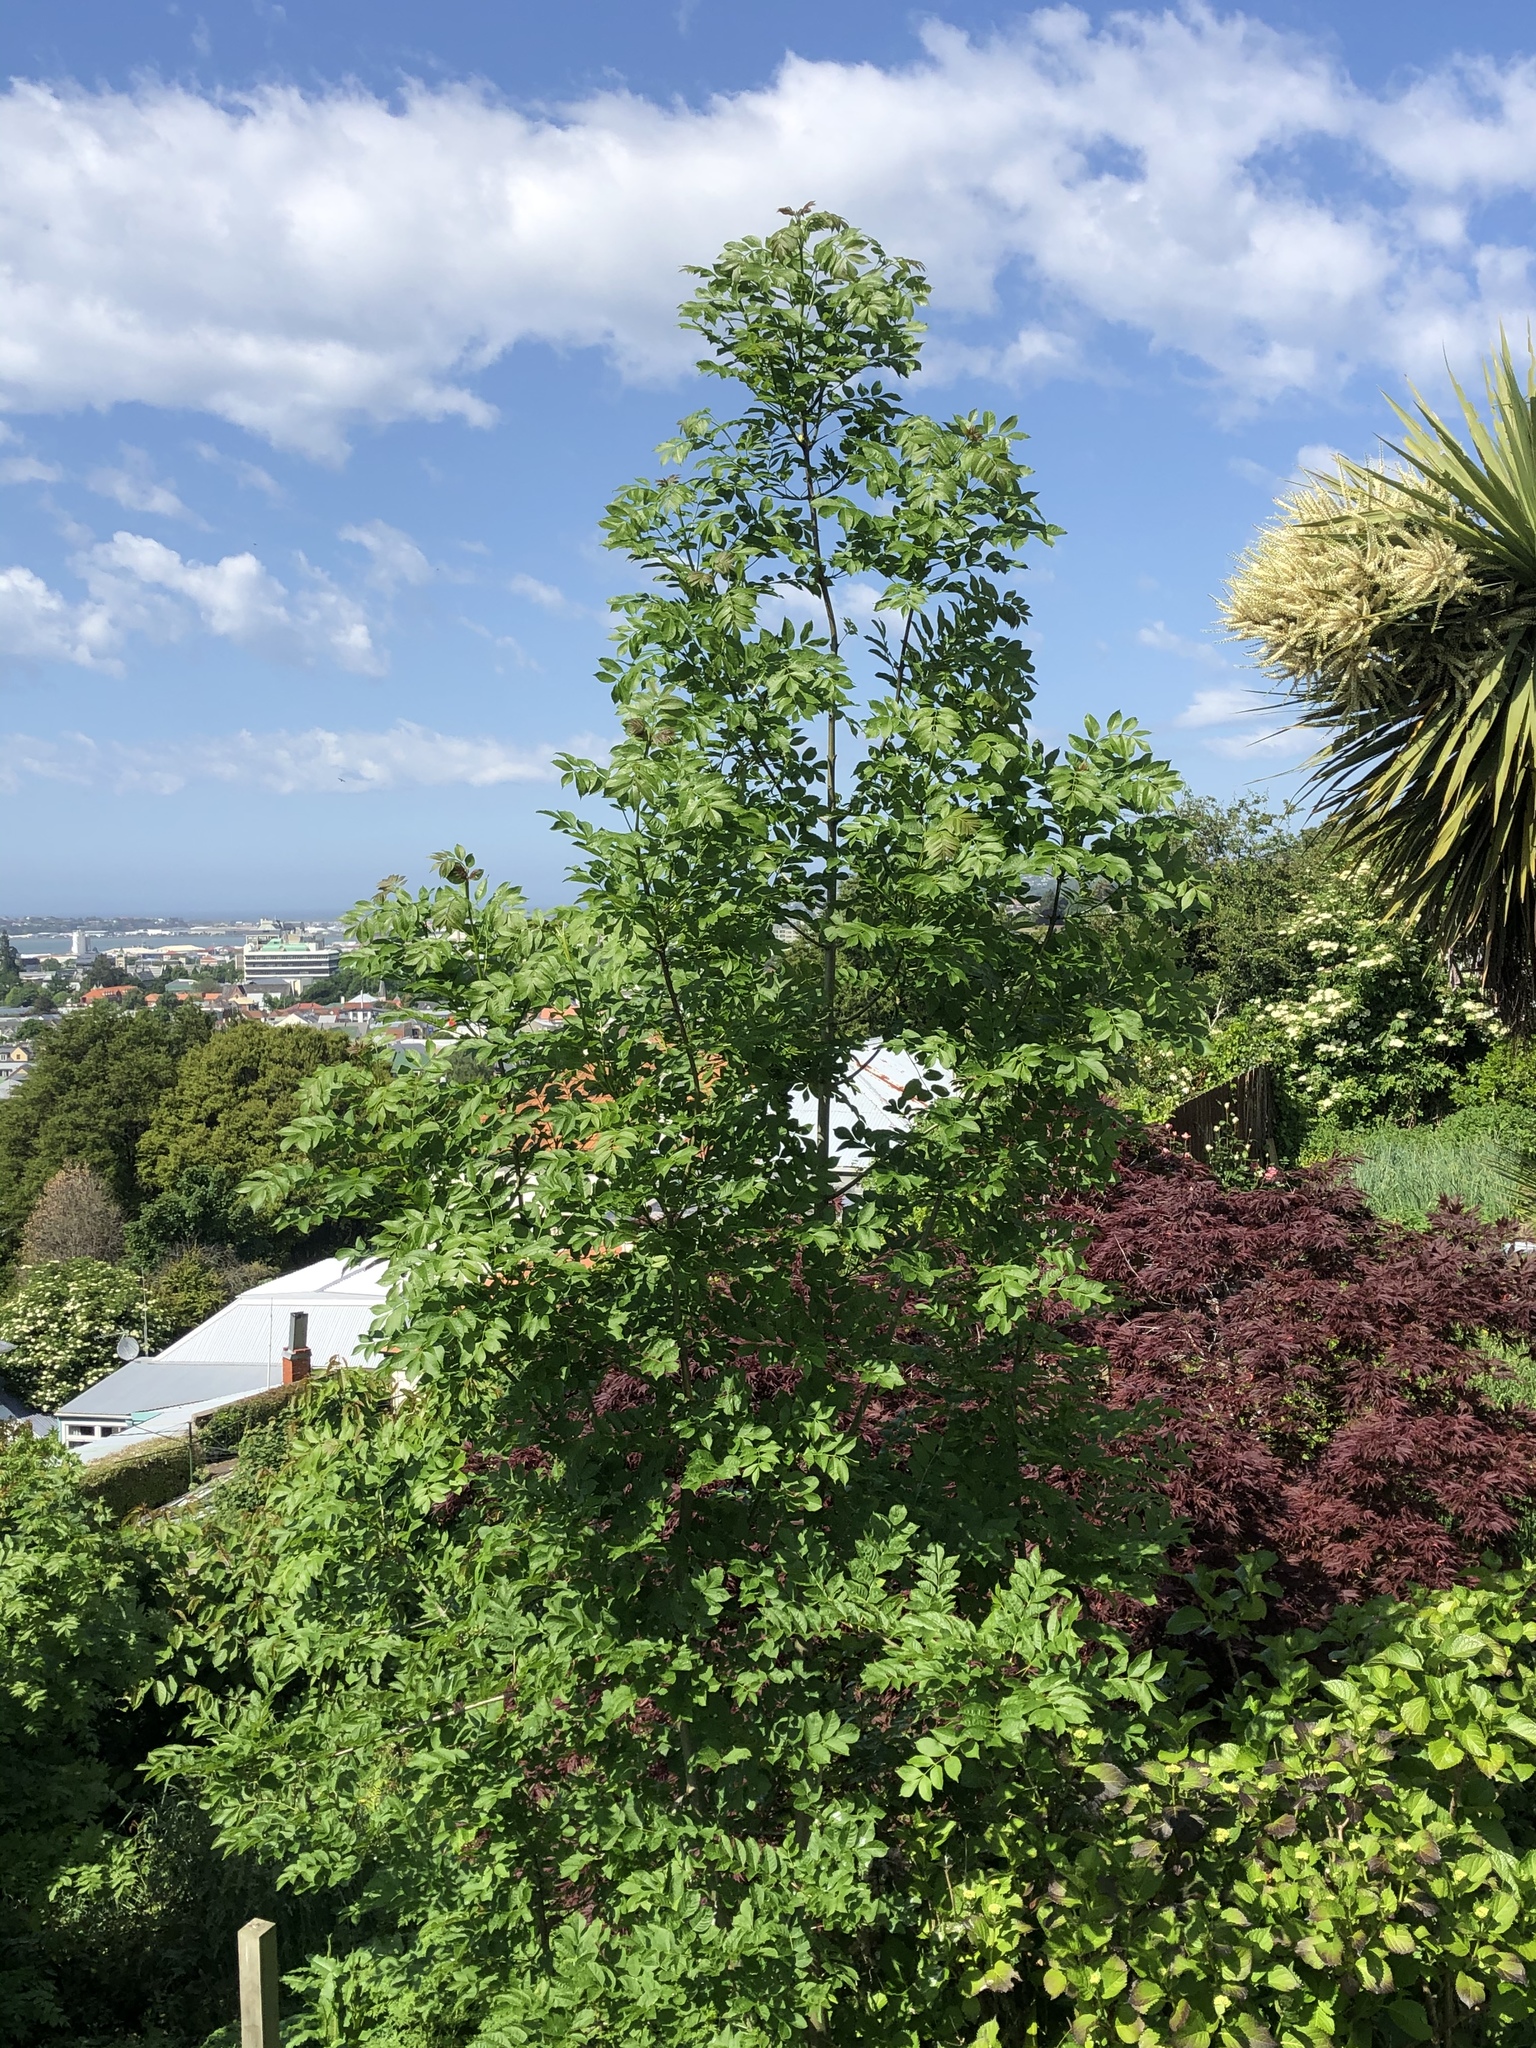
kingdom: Plantae
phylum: Tracheophyta
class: Magnoliopsida
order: Rosales
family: Rosaceae
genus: Sorbus
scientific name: Sorbus aucuparia
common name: Rowan
